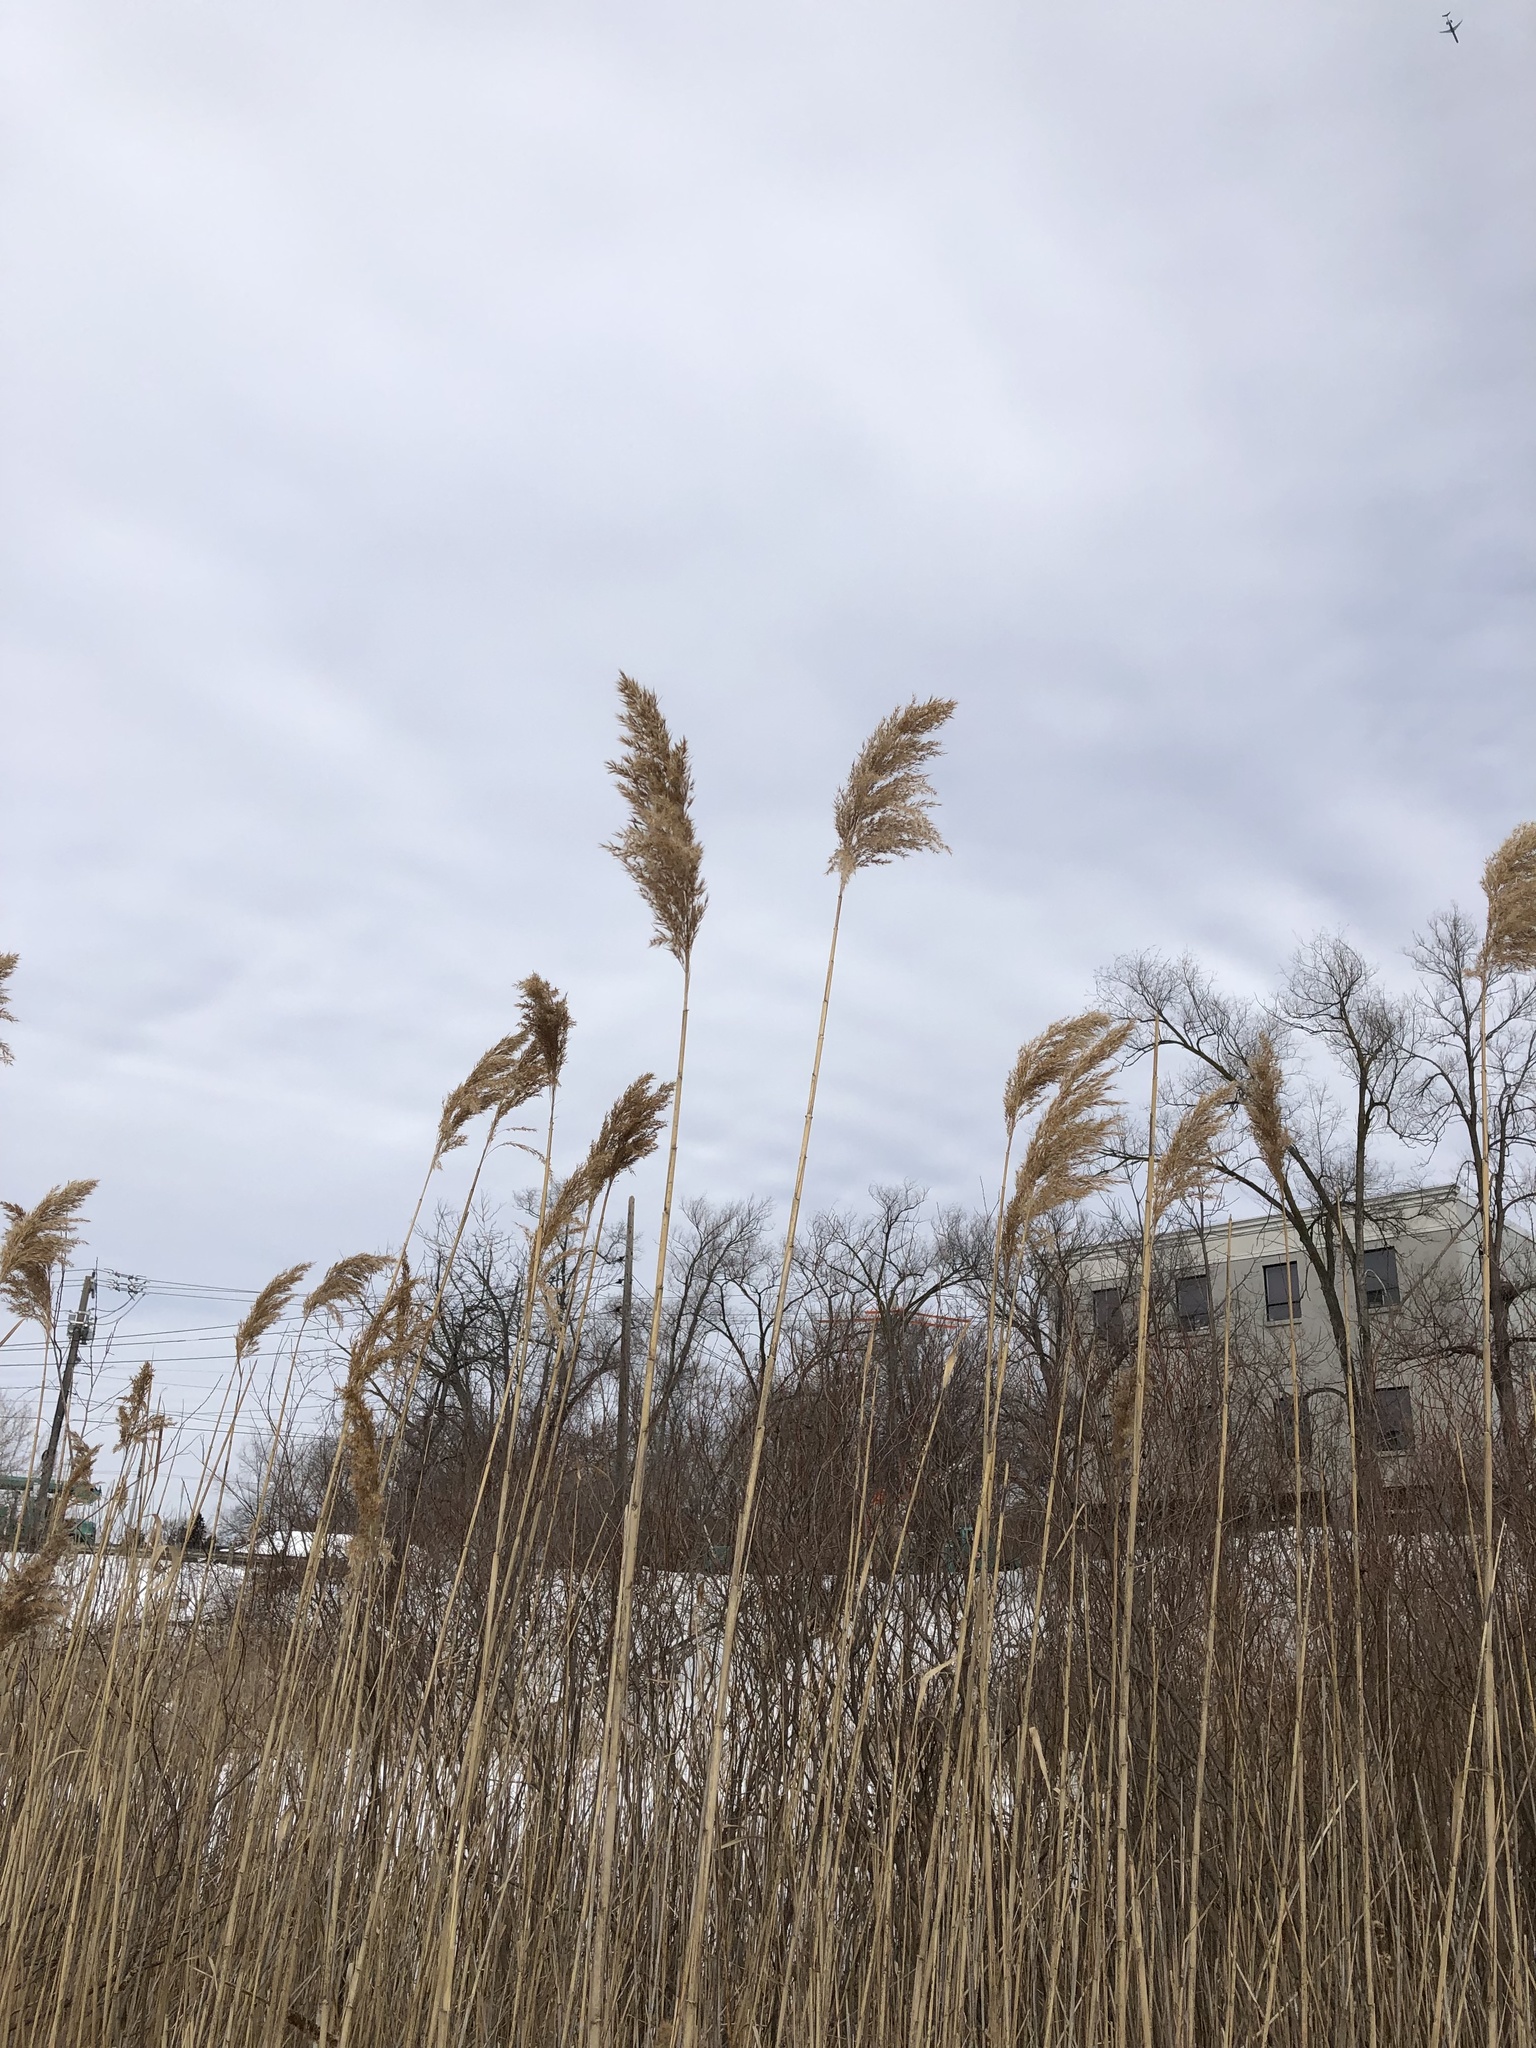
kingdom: Plantae
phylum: Tracheophyta
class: Liliopsida
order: Poales
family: Poaceae
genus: Phragmites
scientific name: Phragmites australis
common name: Common reed
